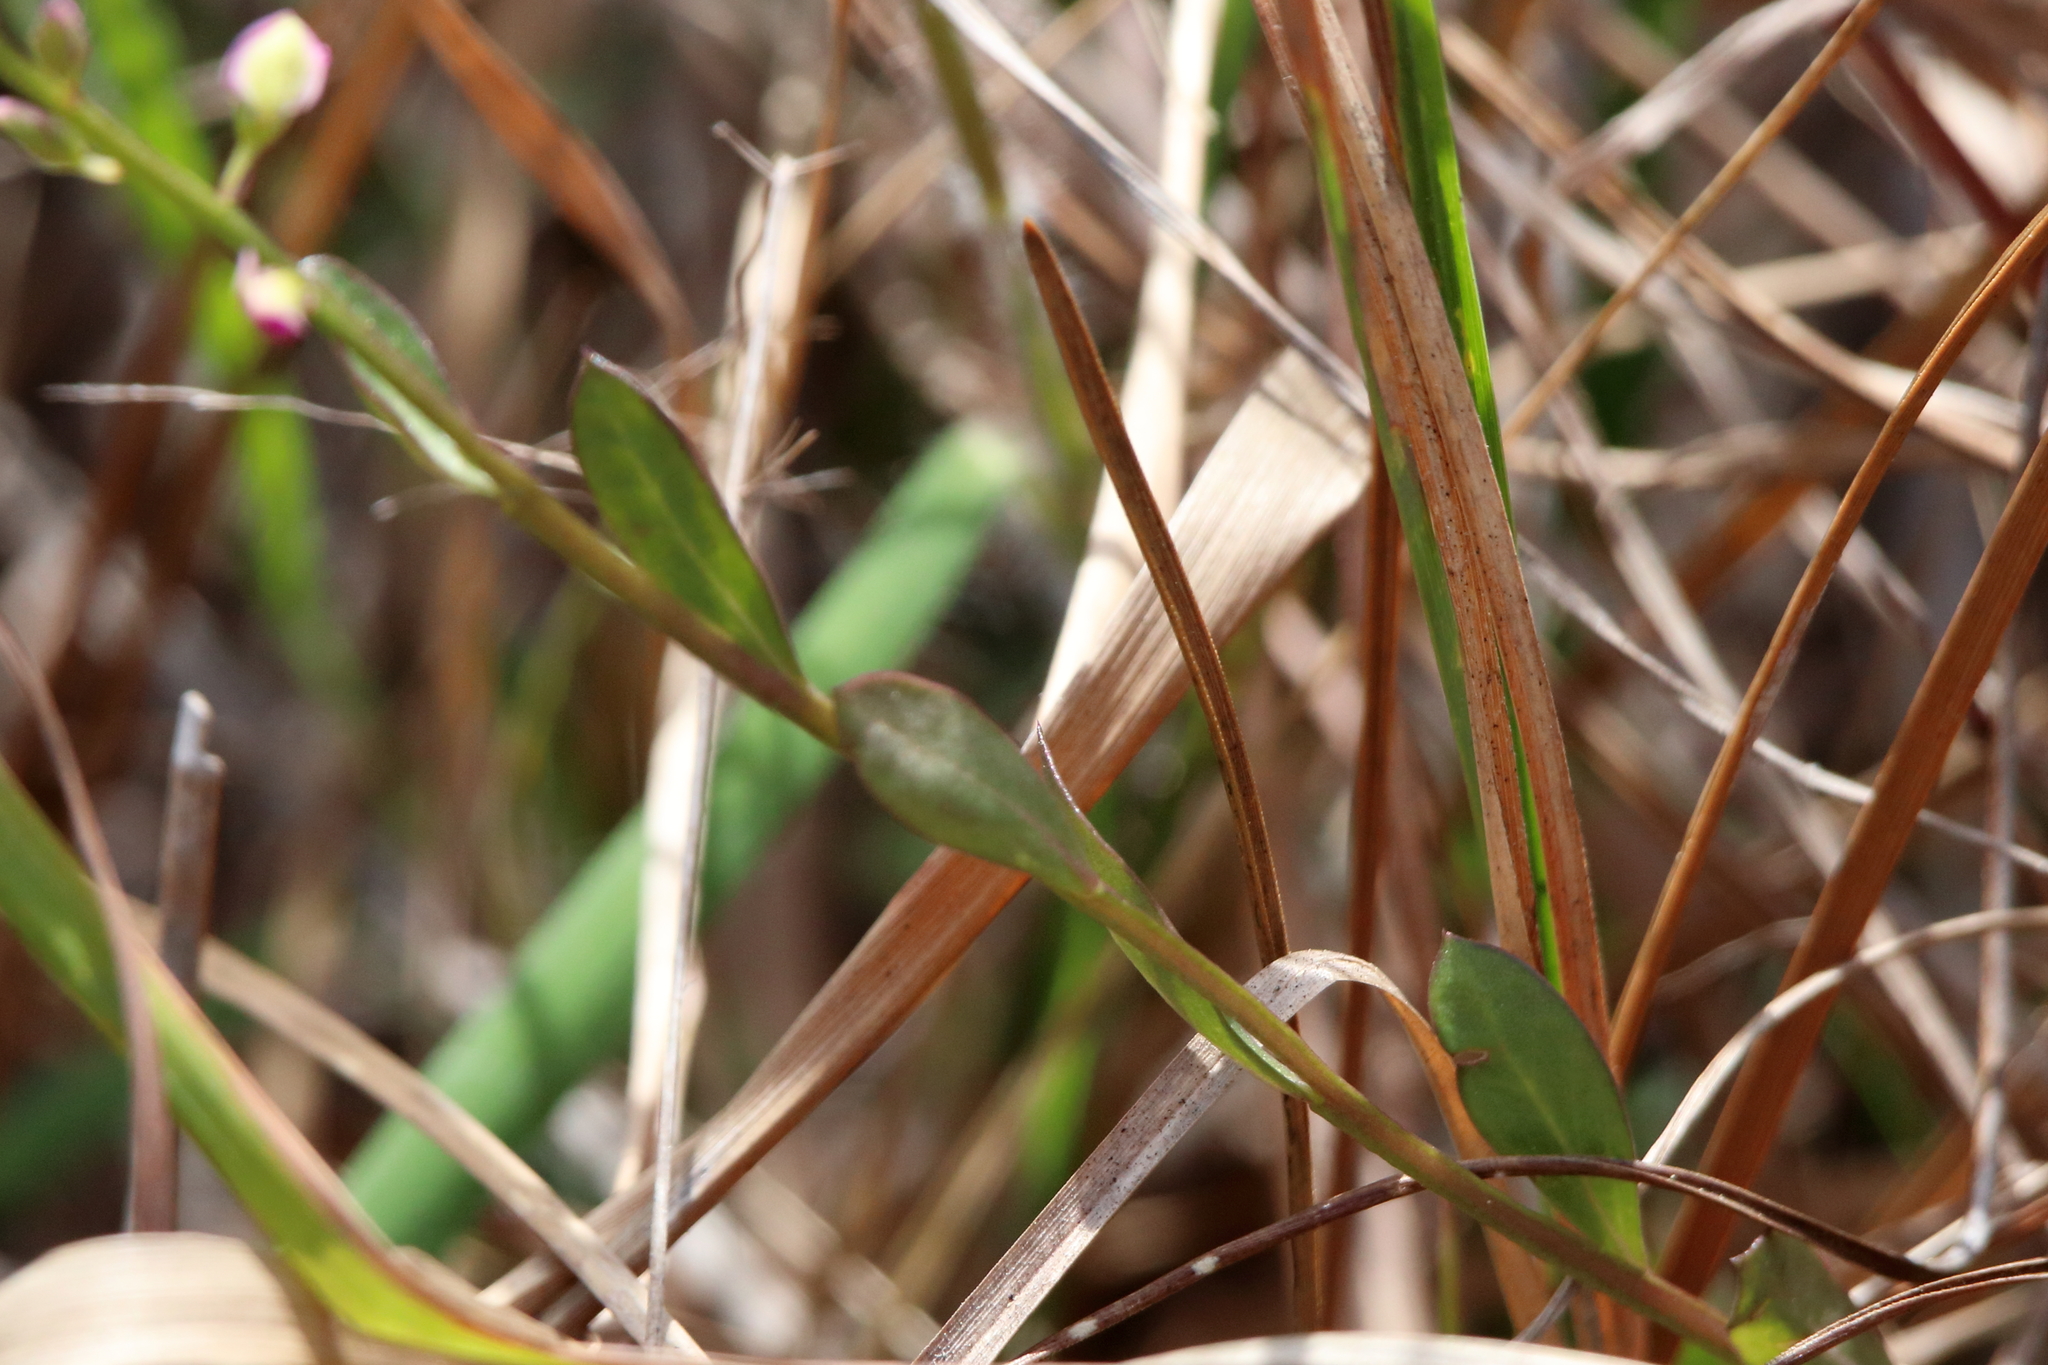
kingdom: Plantae
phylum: Tracheophyta
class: Magnoliopsida
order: Fabales
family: Polygalaceae
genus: Polygala
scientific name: Polygala crenata
